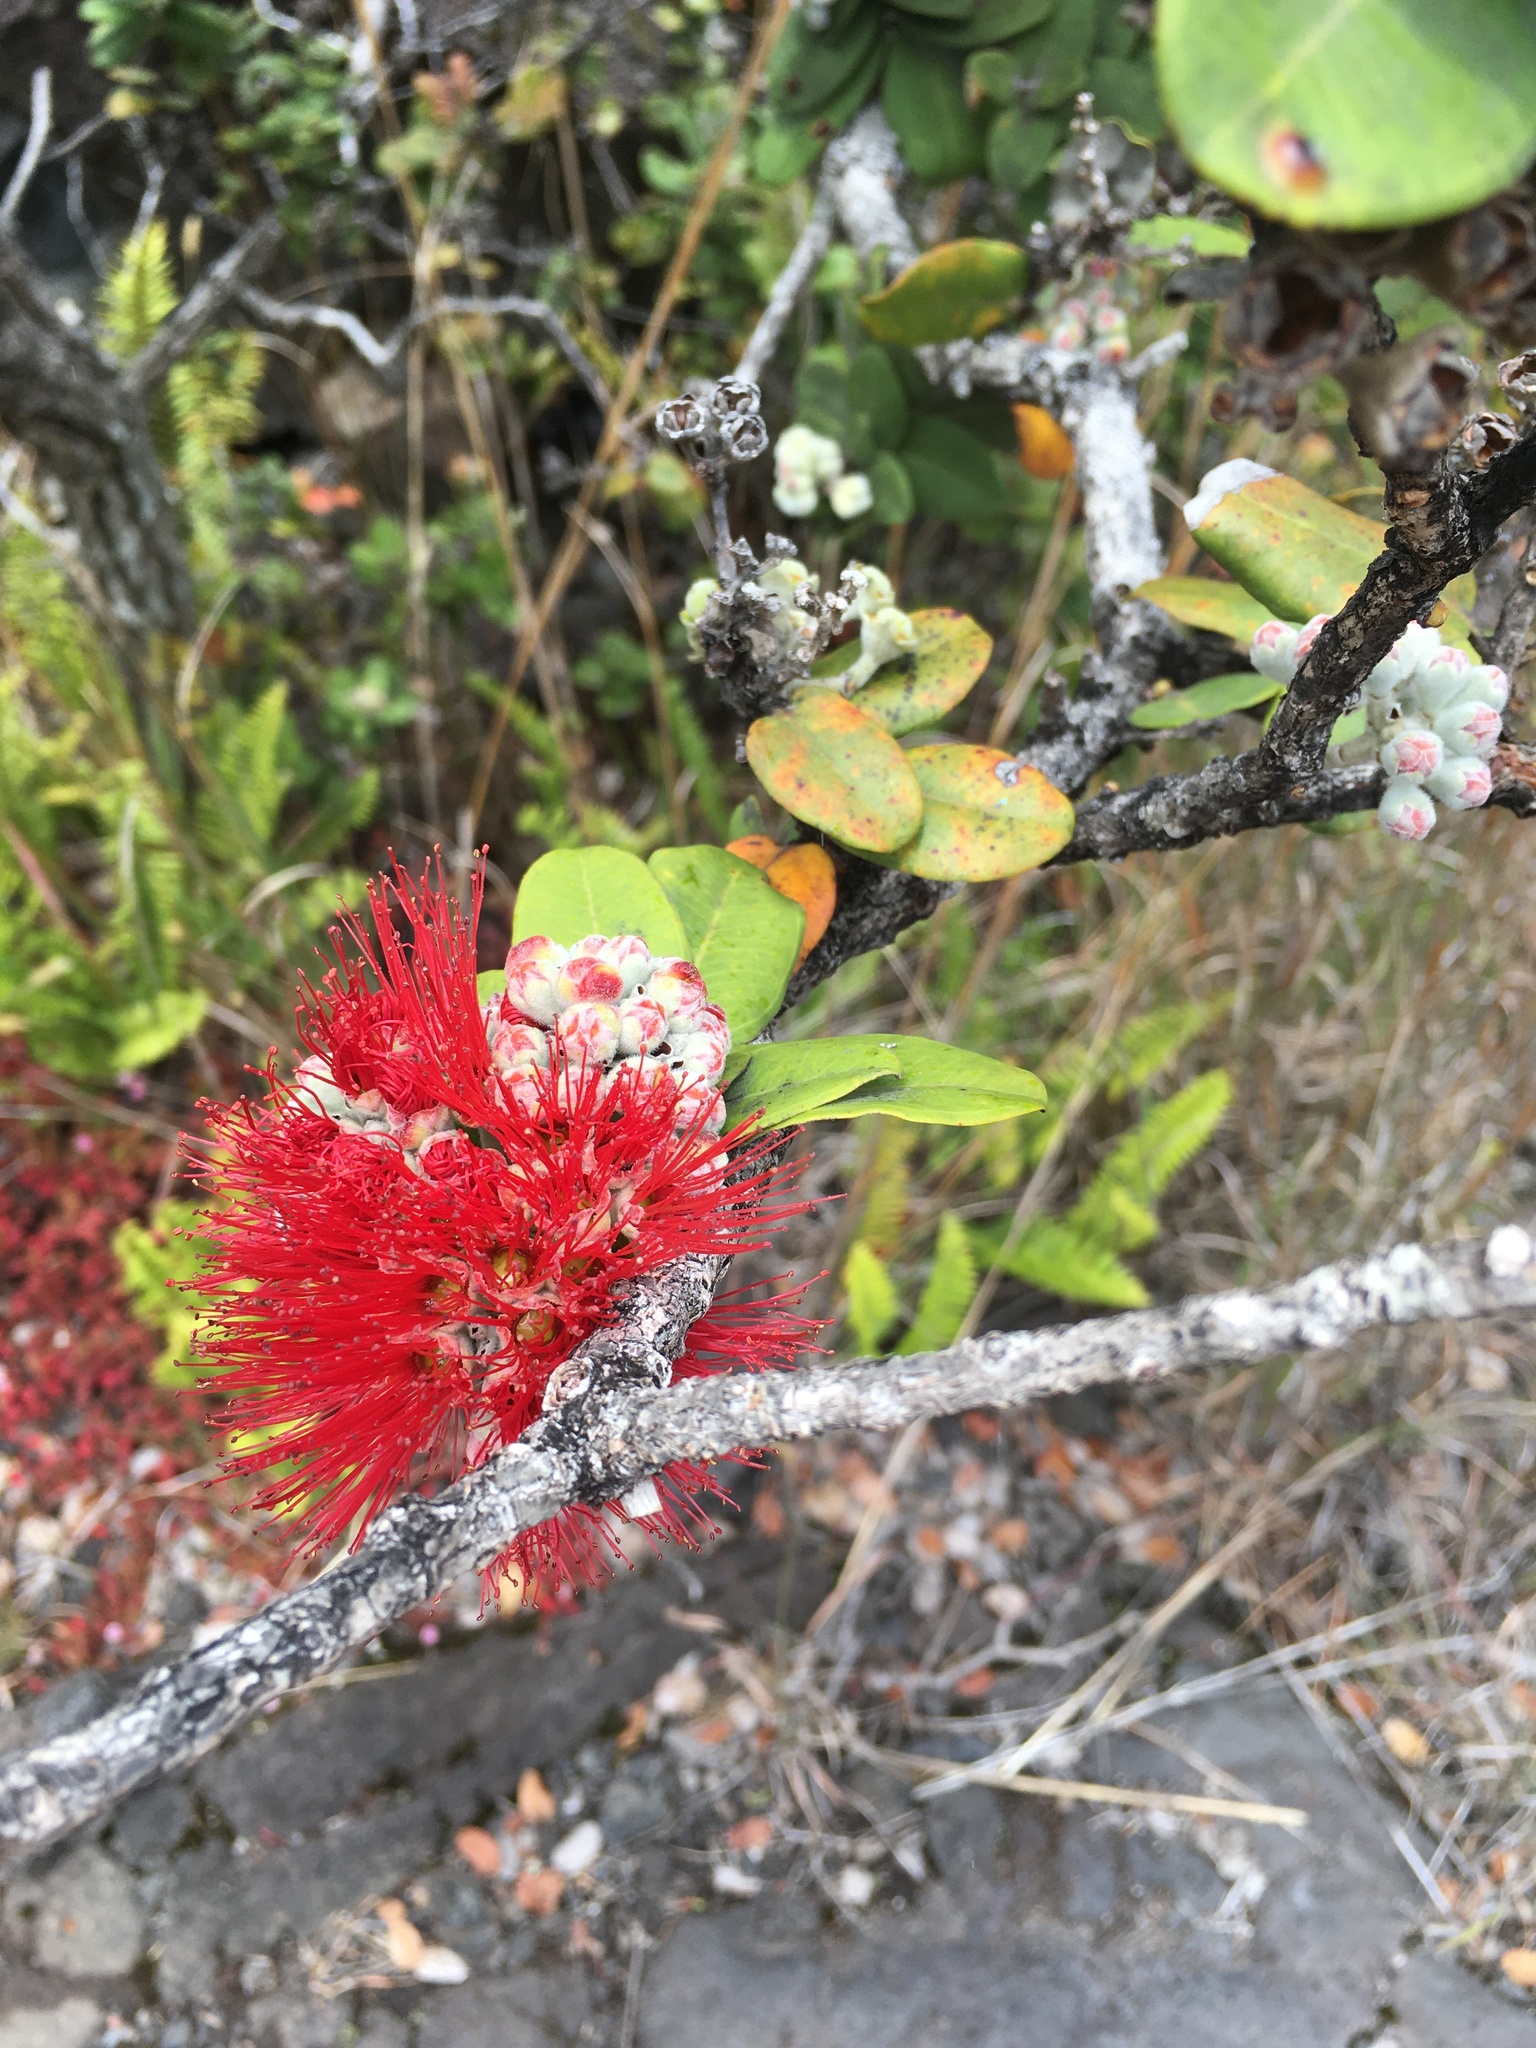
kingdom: Plantae
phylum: Tracheophyta
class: Magnoliopsida
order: Myrtales
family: Myrtaceae
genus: Metrosideros
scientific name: Metrosideros polymorpha
